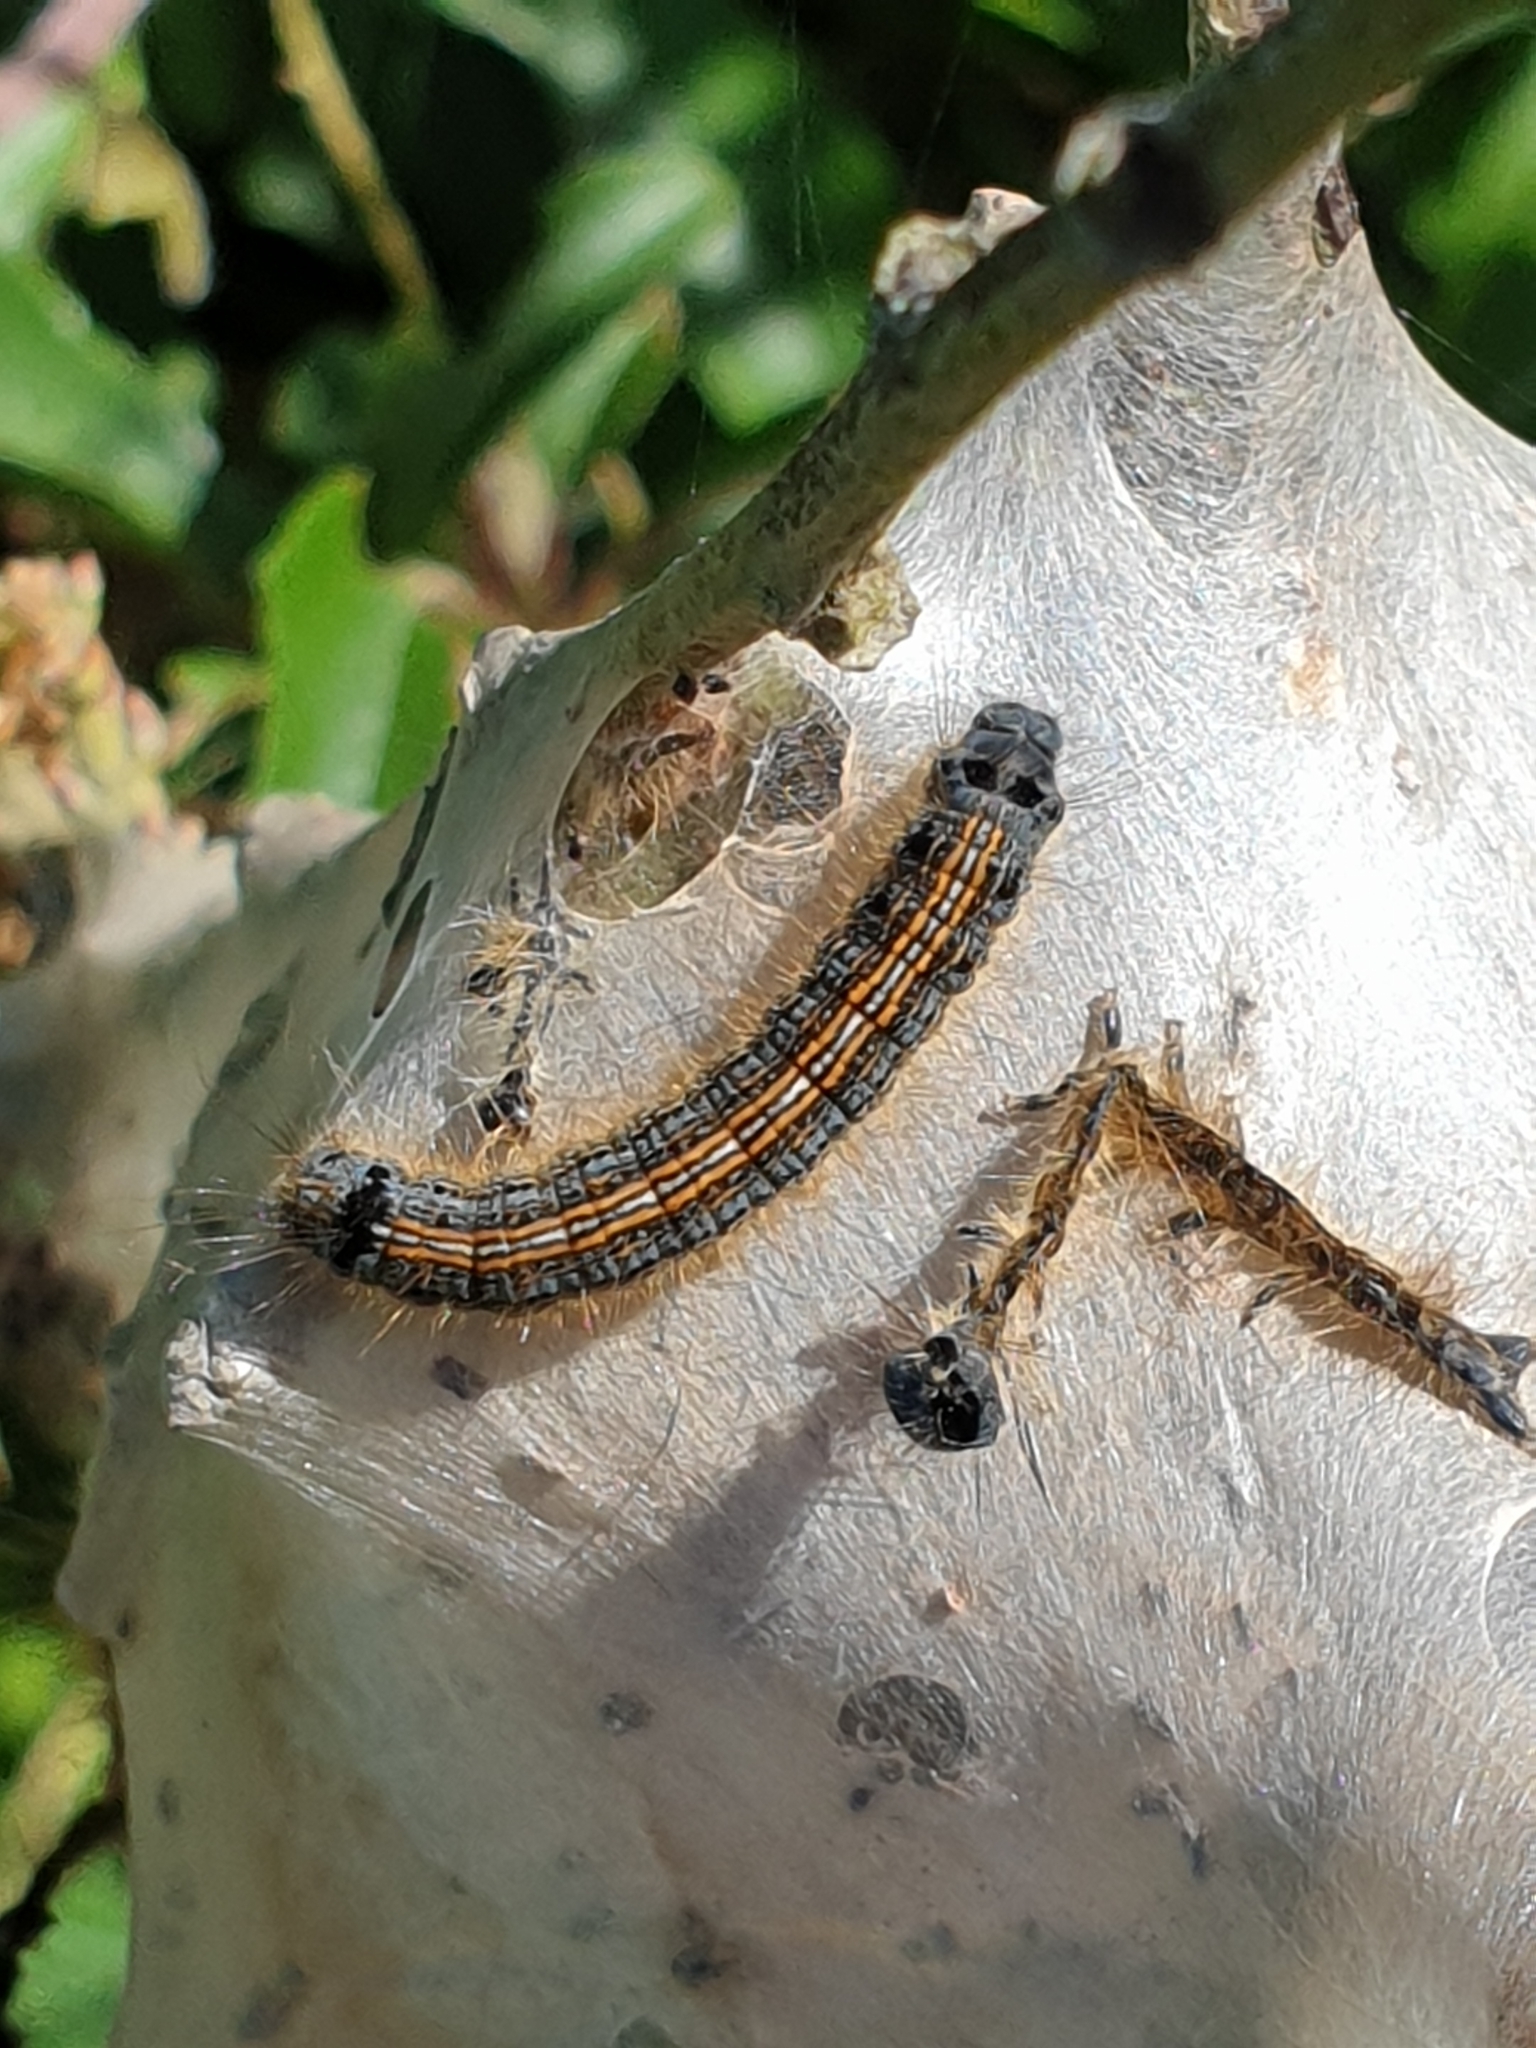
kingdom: Animalia
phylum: Arthropoda
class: Insecta
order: Lepidoptera
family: Lasiocampidae
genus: Malacosoma
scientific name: Malacosoma neustria
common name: The lackey
